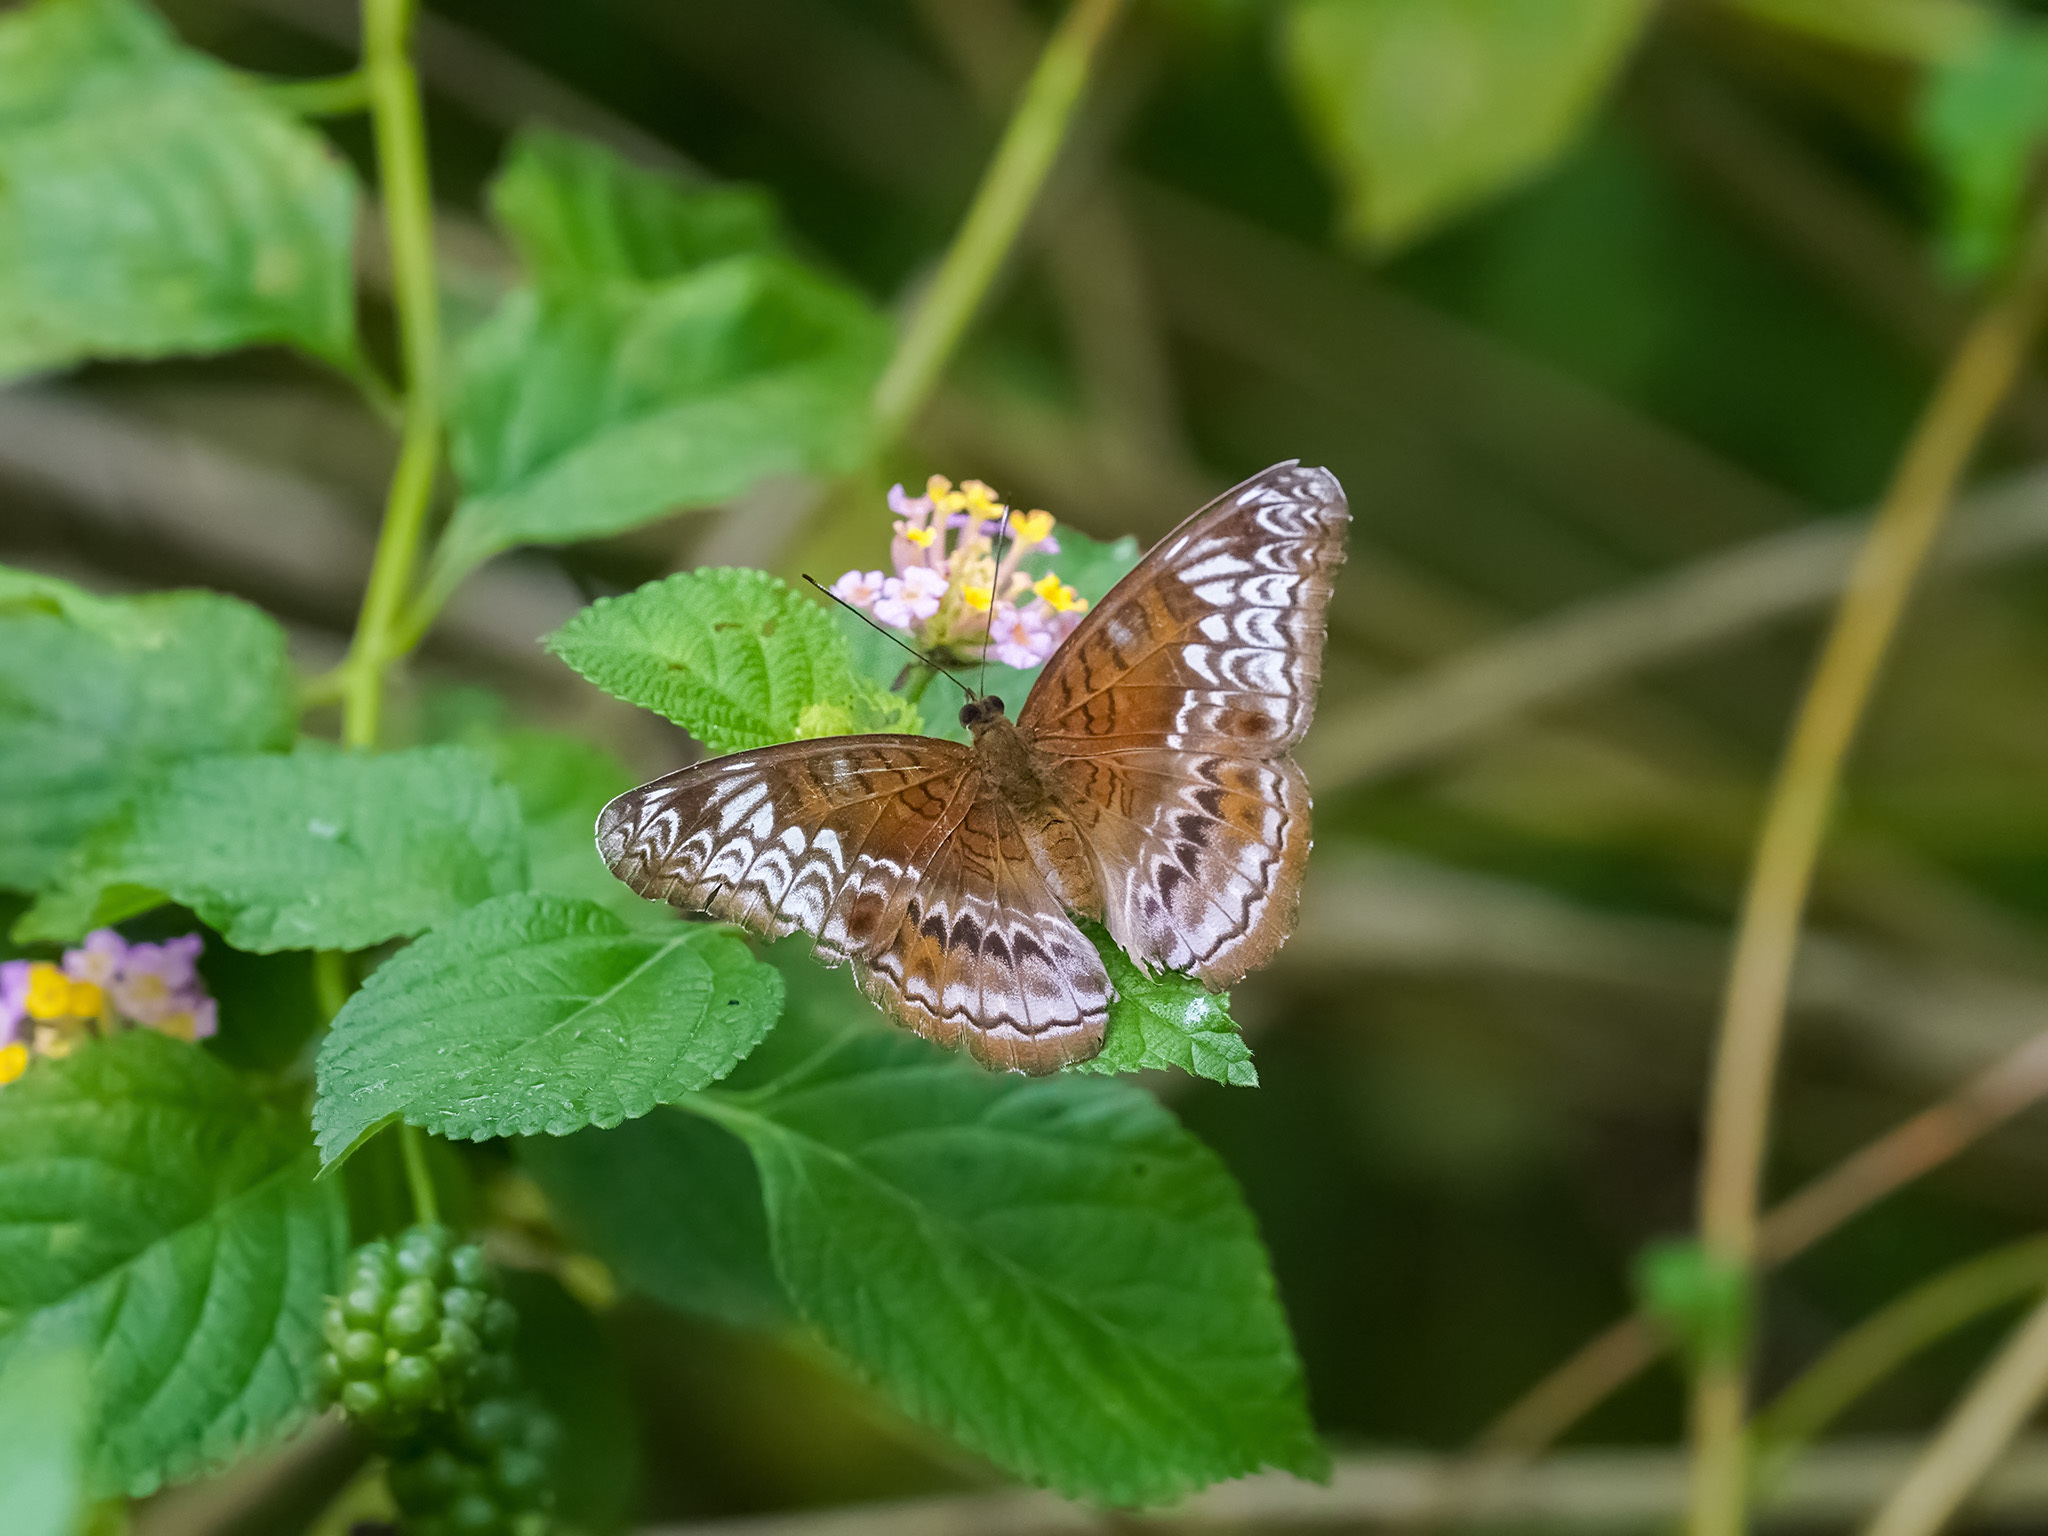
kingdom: Animalia
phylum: Arthropoda
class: Insecta
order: Lepidoptera
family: Nymphalidae
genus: Lebadea
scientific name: Lebadea martha
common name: Knight
